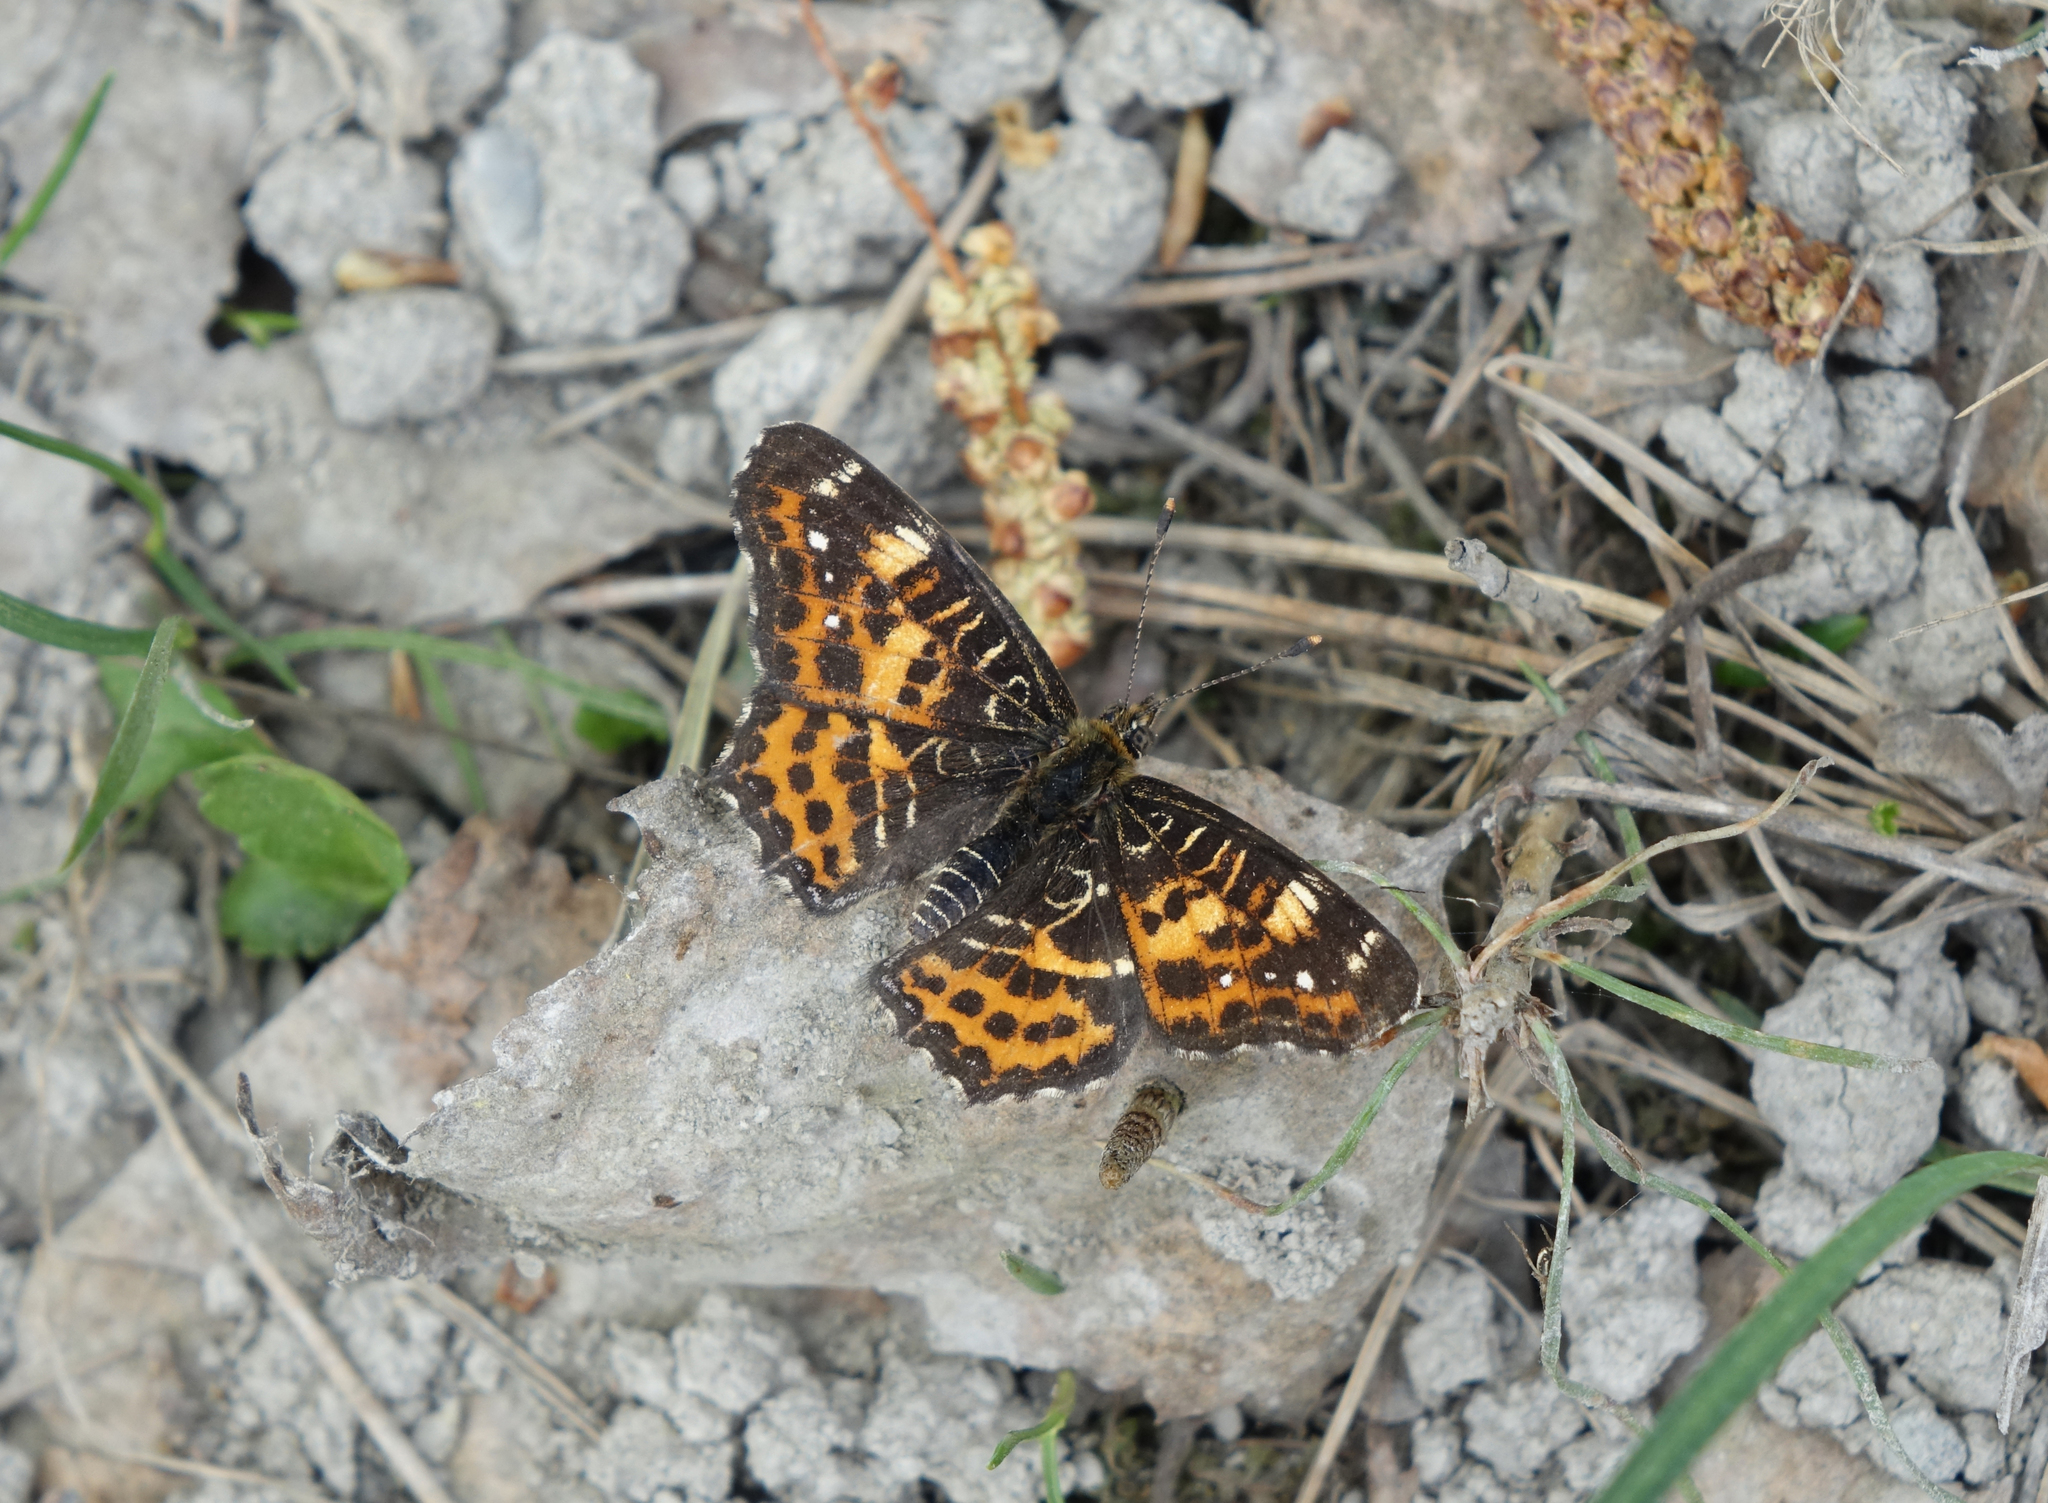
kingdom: Animalia
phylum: Arthropoda
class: Insecta
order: Lepidoptera
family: Nymphalidae
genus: Araschnia
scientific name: Araschnia levana
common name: Map butterfly
